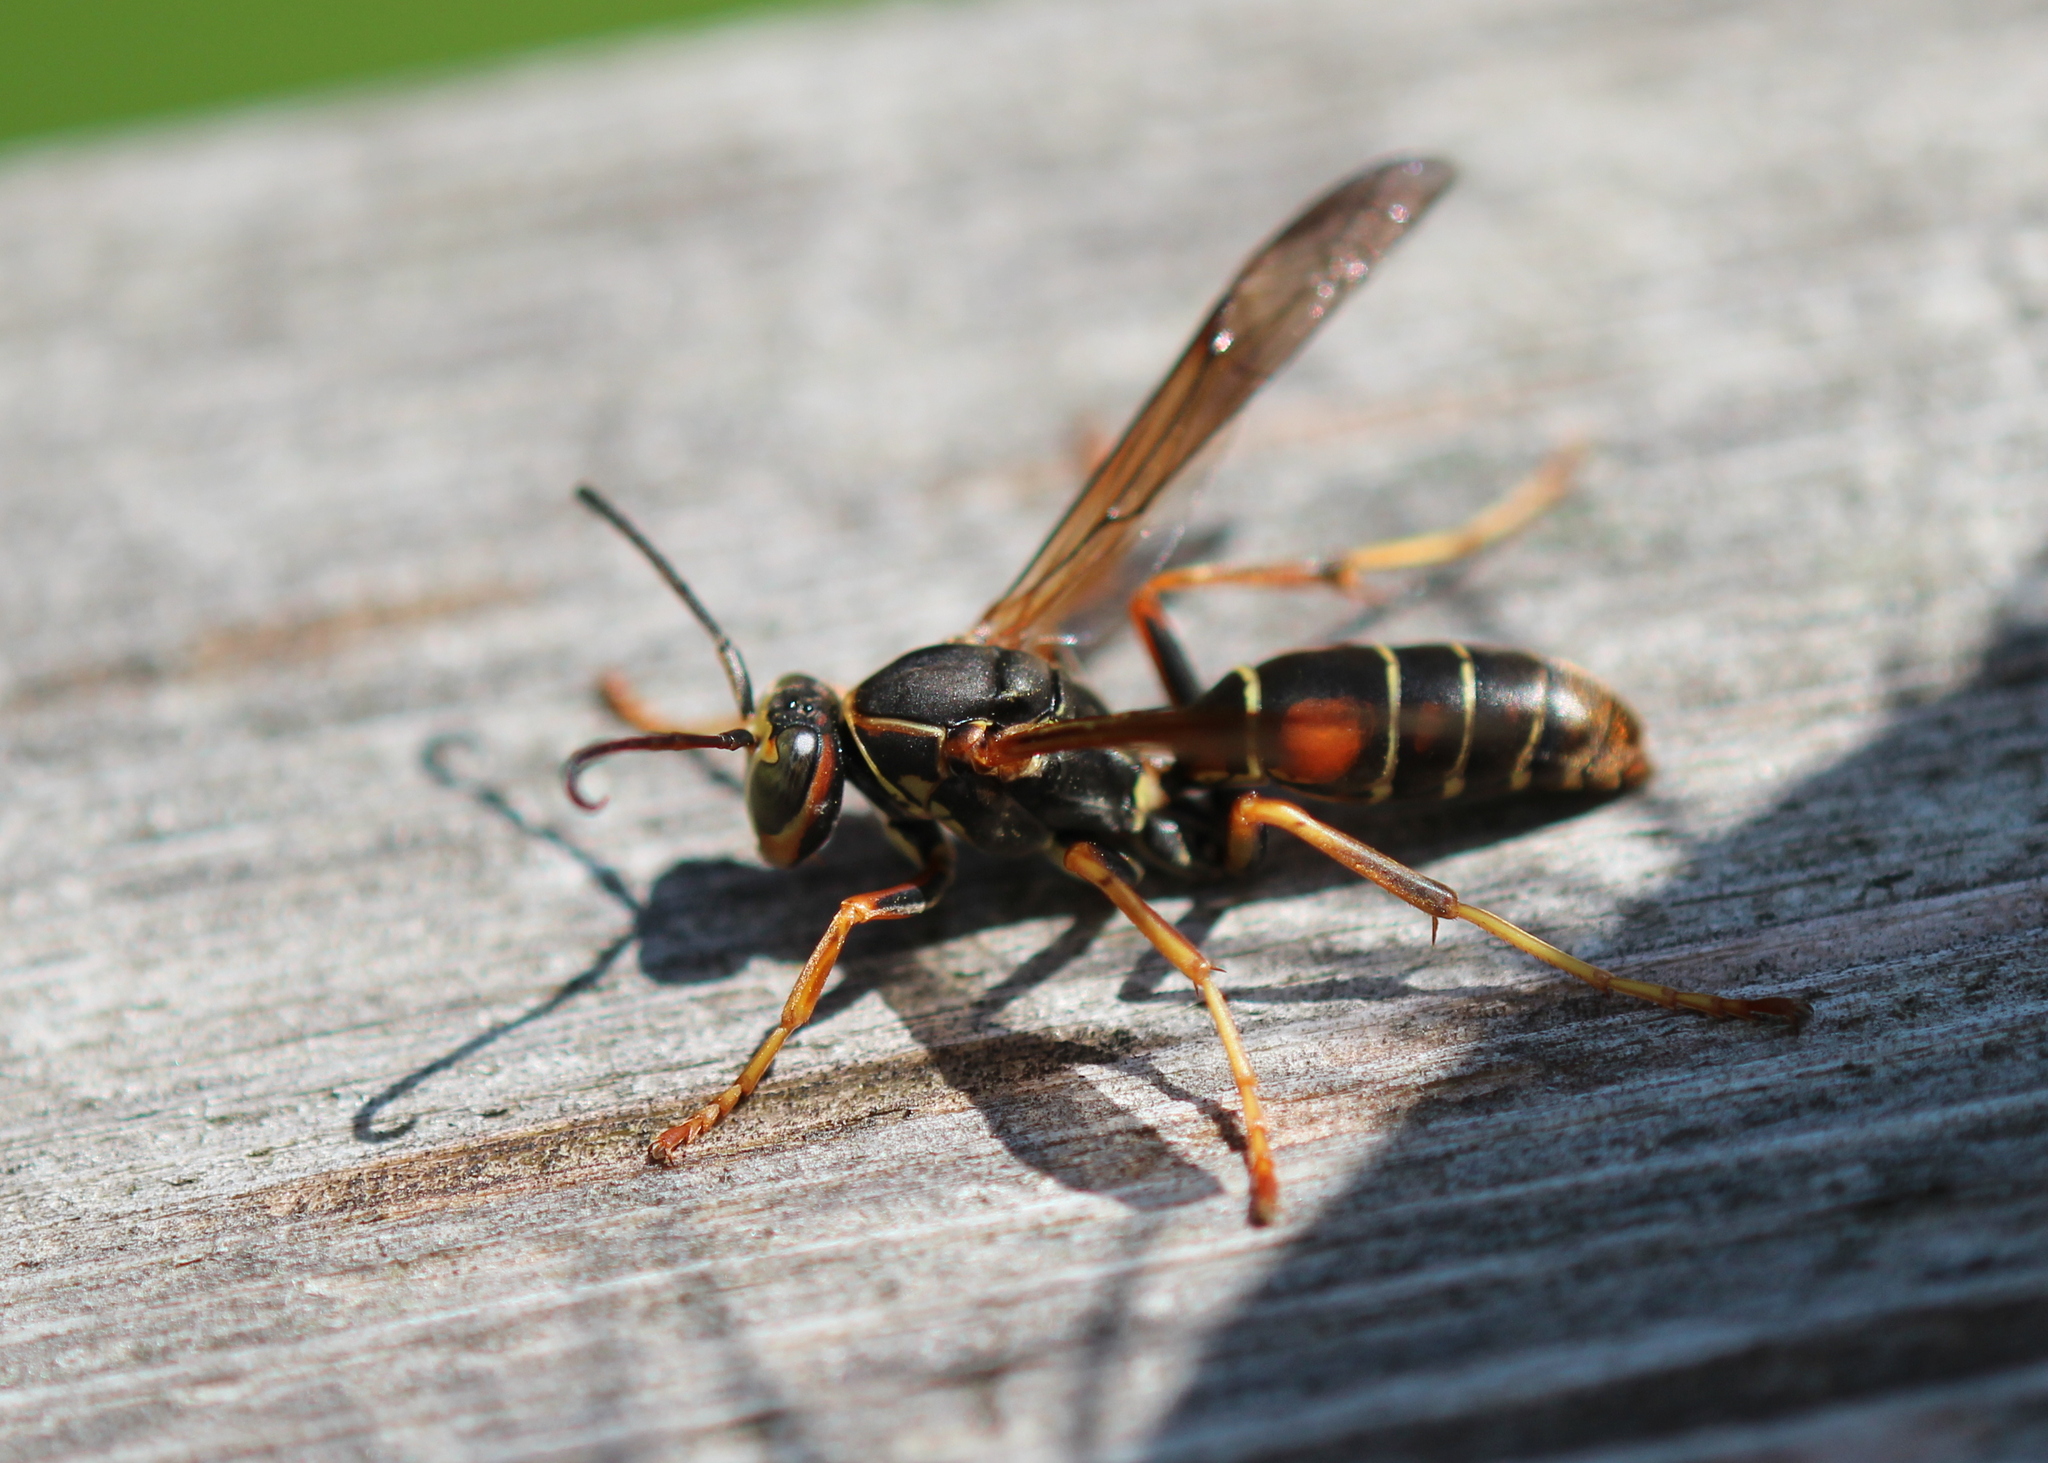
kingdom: Animalia
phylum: Arthropoda
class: Insecta
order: Hymenoptera
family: Eumenidae
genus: Polistes
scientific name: Polistes fuscatus
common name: Dark paper wasp
